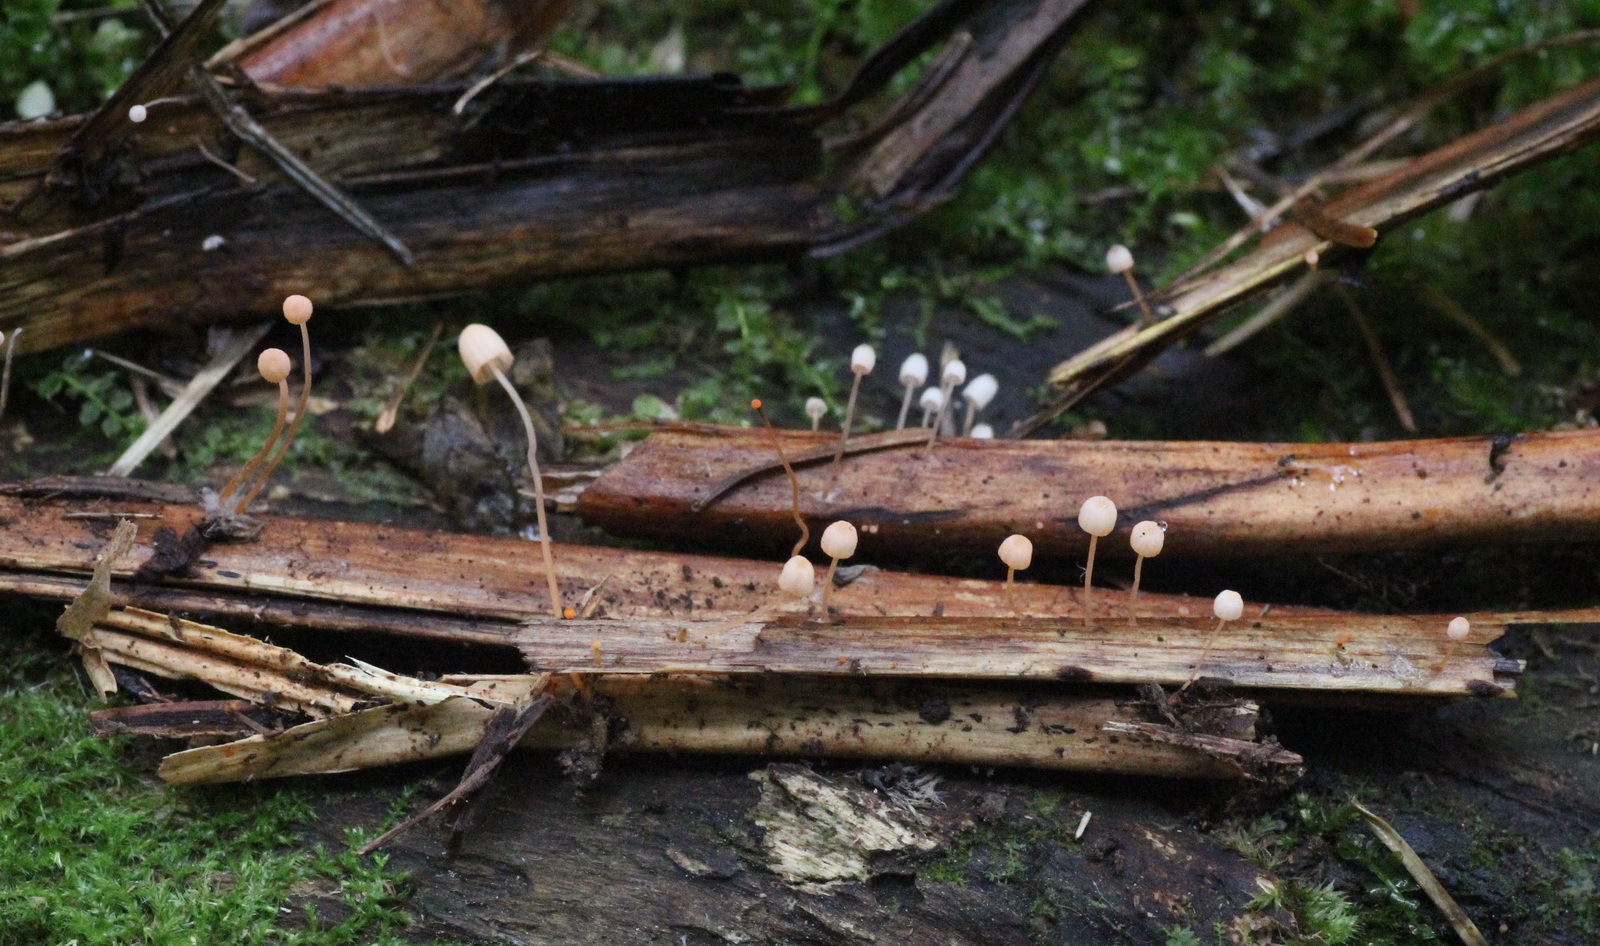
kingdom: Fungi
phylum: Basidiomycota
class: Agaricomycetes
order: Agaricales
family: Mycenaceae
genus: Mycena
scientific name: Mycena pterigena
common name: Ferny bonnet
